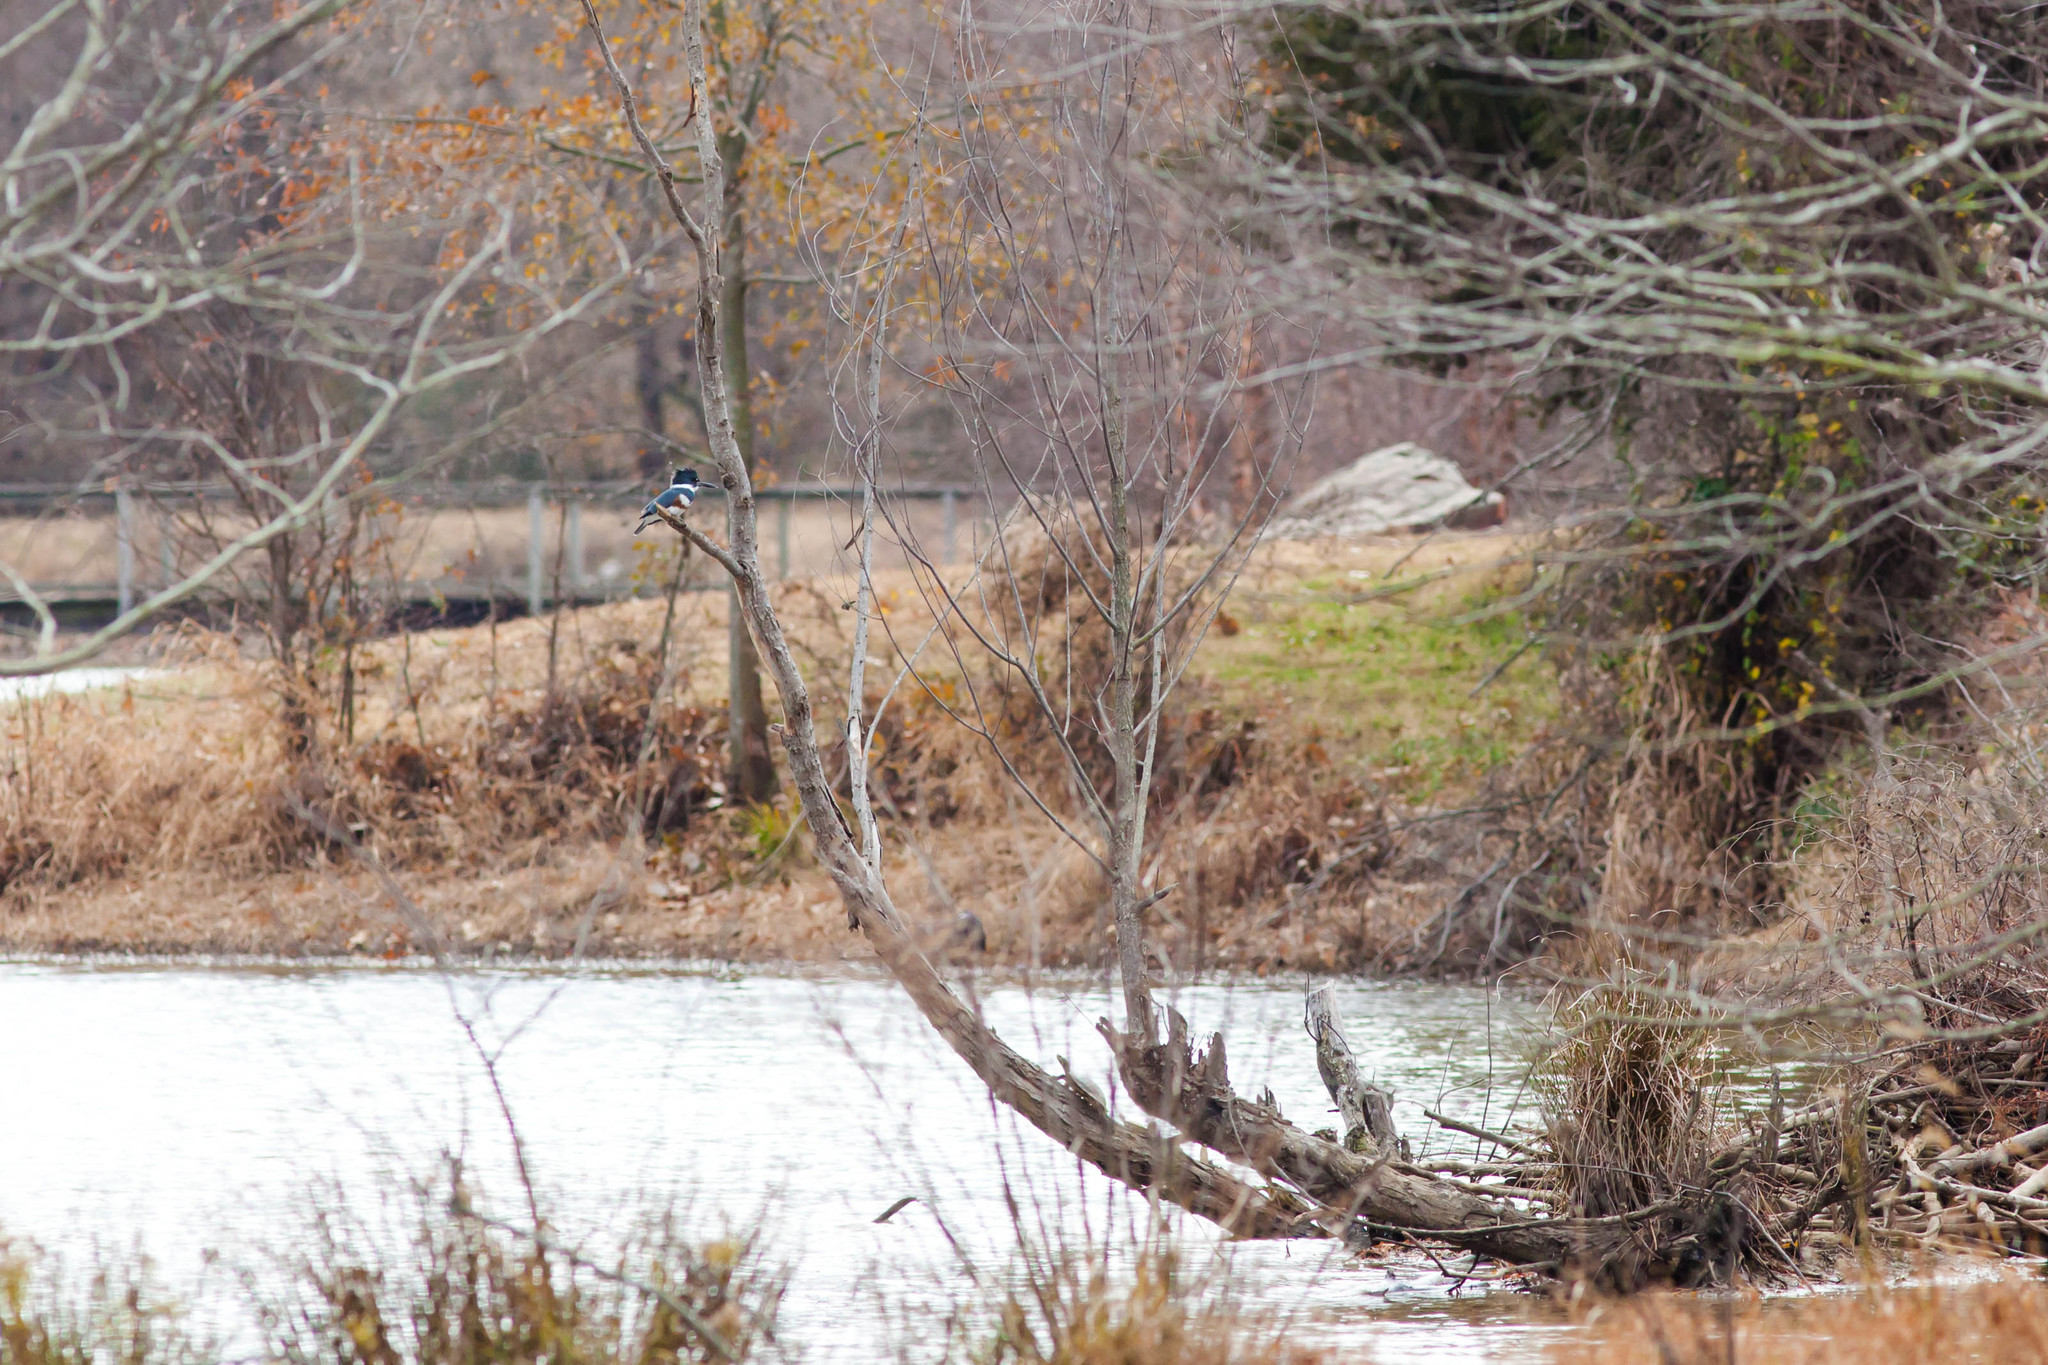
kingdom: Animalia
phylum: Chordata
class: Aves
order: Coraciiformes
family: Alcedinidae
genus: Megaceryle
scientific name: Megaceryle alcyon
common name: Belted kingfisher
